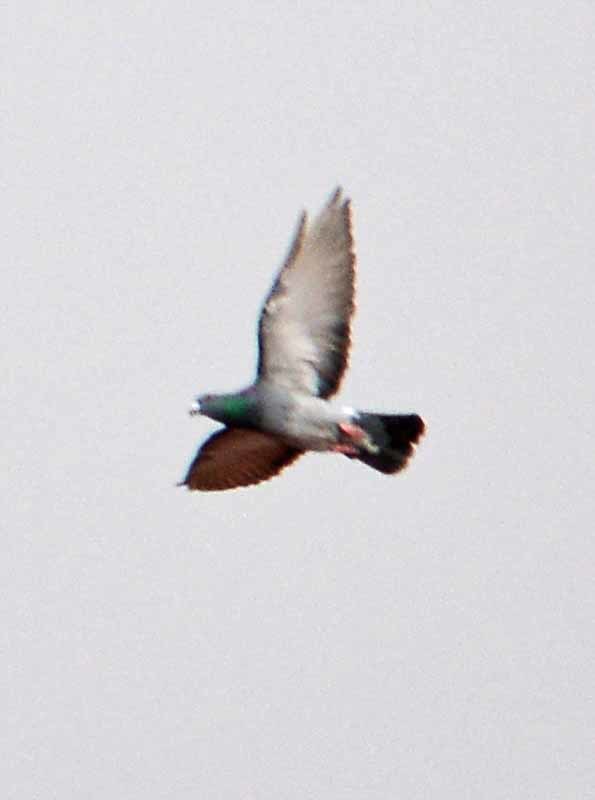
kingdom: Animalia
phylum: Chordata
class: Aves
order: Columbiformes
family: Columbidae
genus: Columba
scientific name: Columba livia
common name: Rock pigeon
